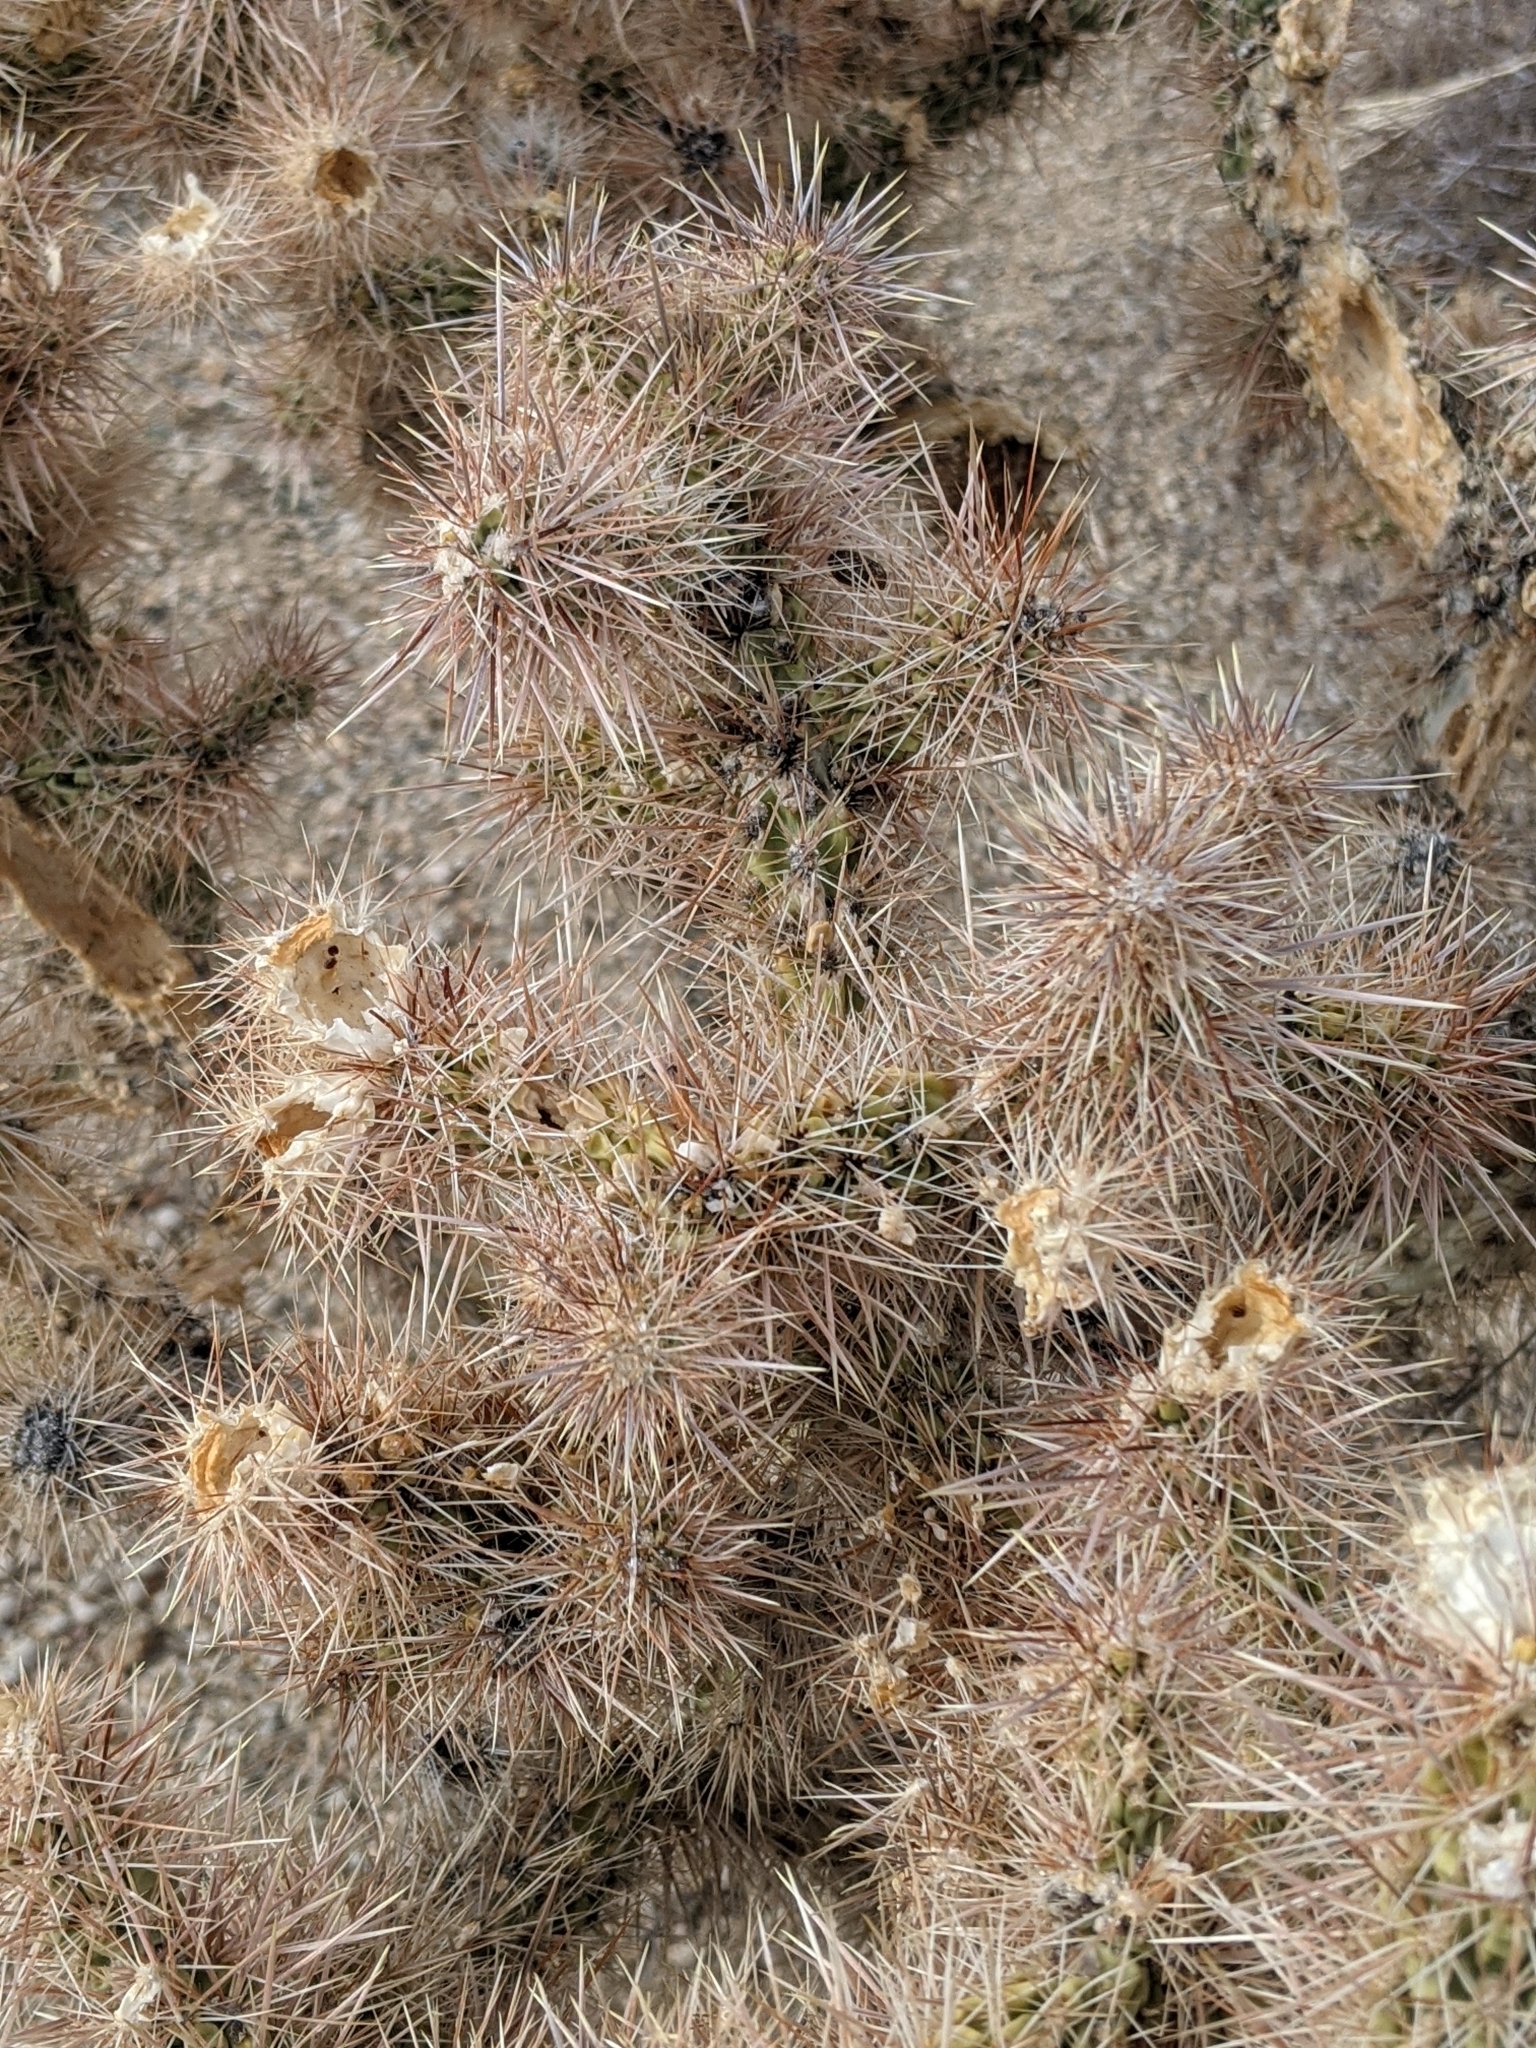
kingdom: Plantae
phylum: Tracheophyta
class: Magnoliopsida
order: Caryophyllales
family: Cactaceae
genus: Cylindropuntia
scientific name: Cylindropuntia echinocarpa
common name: Ground cholla
